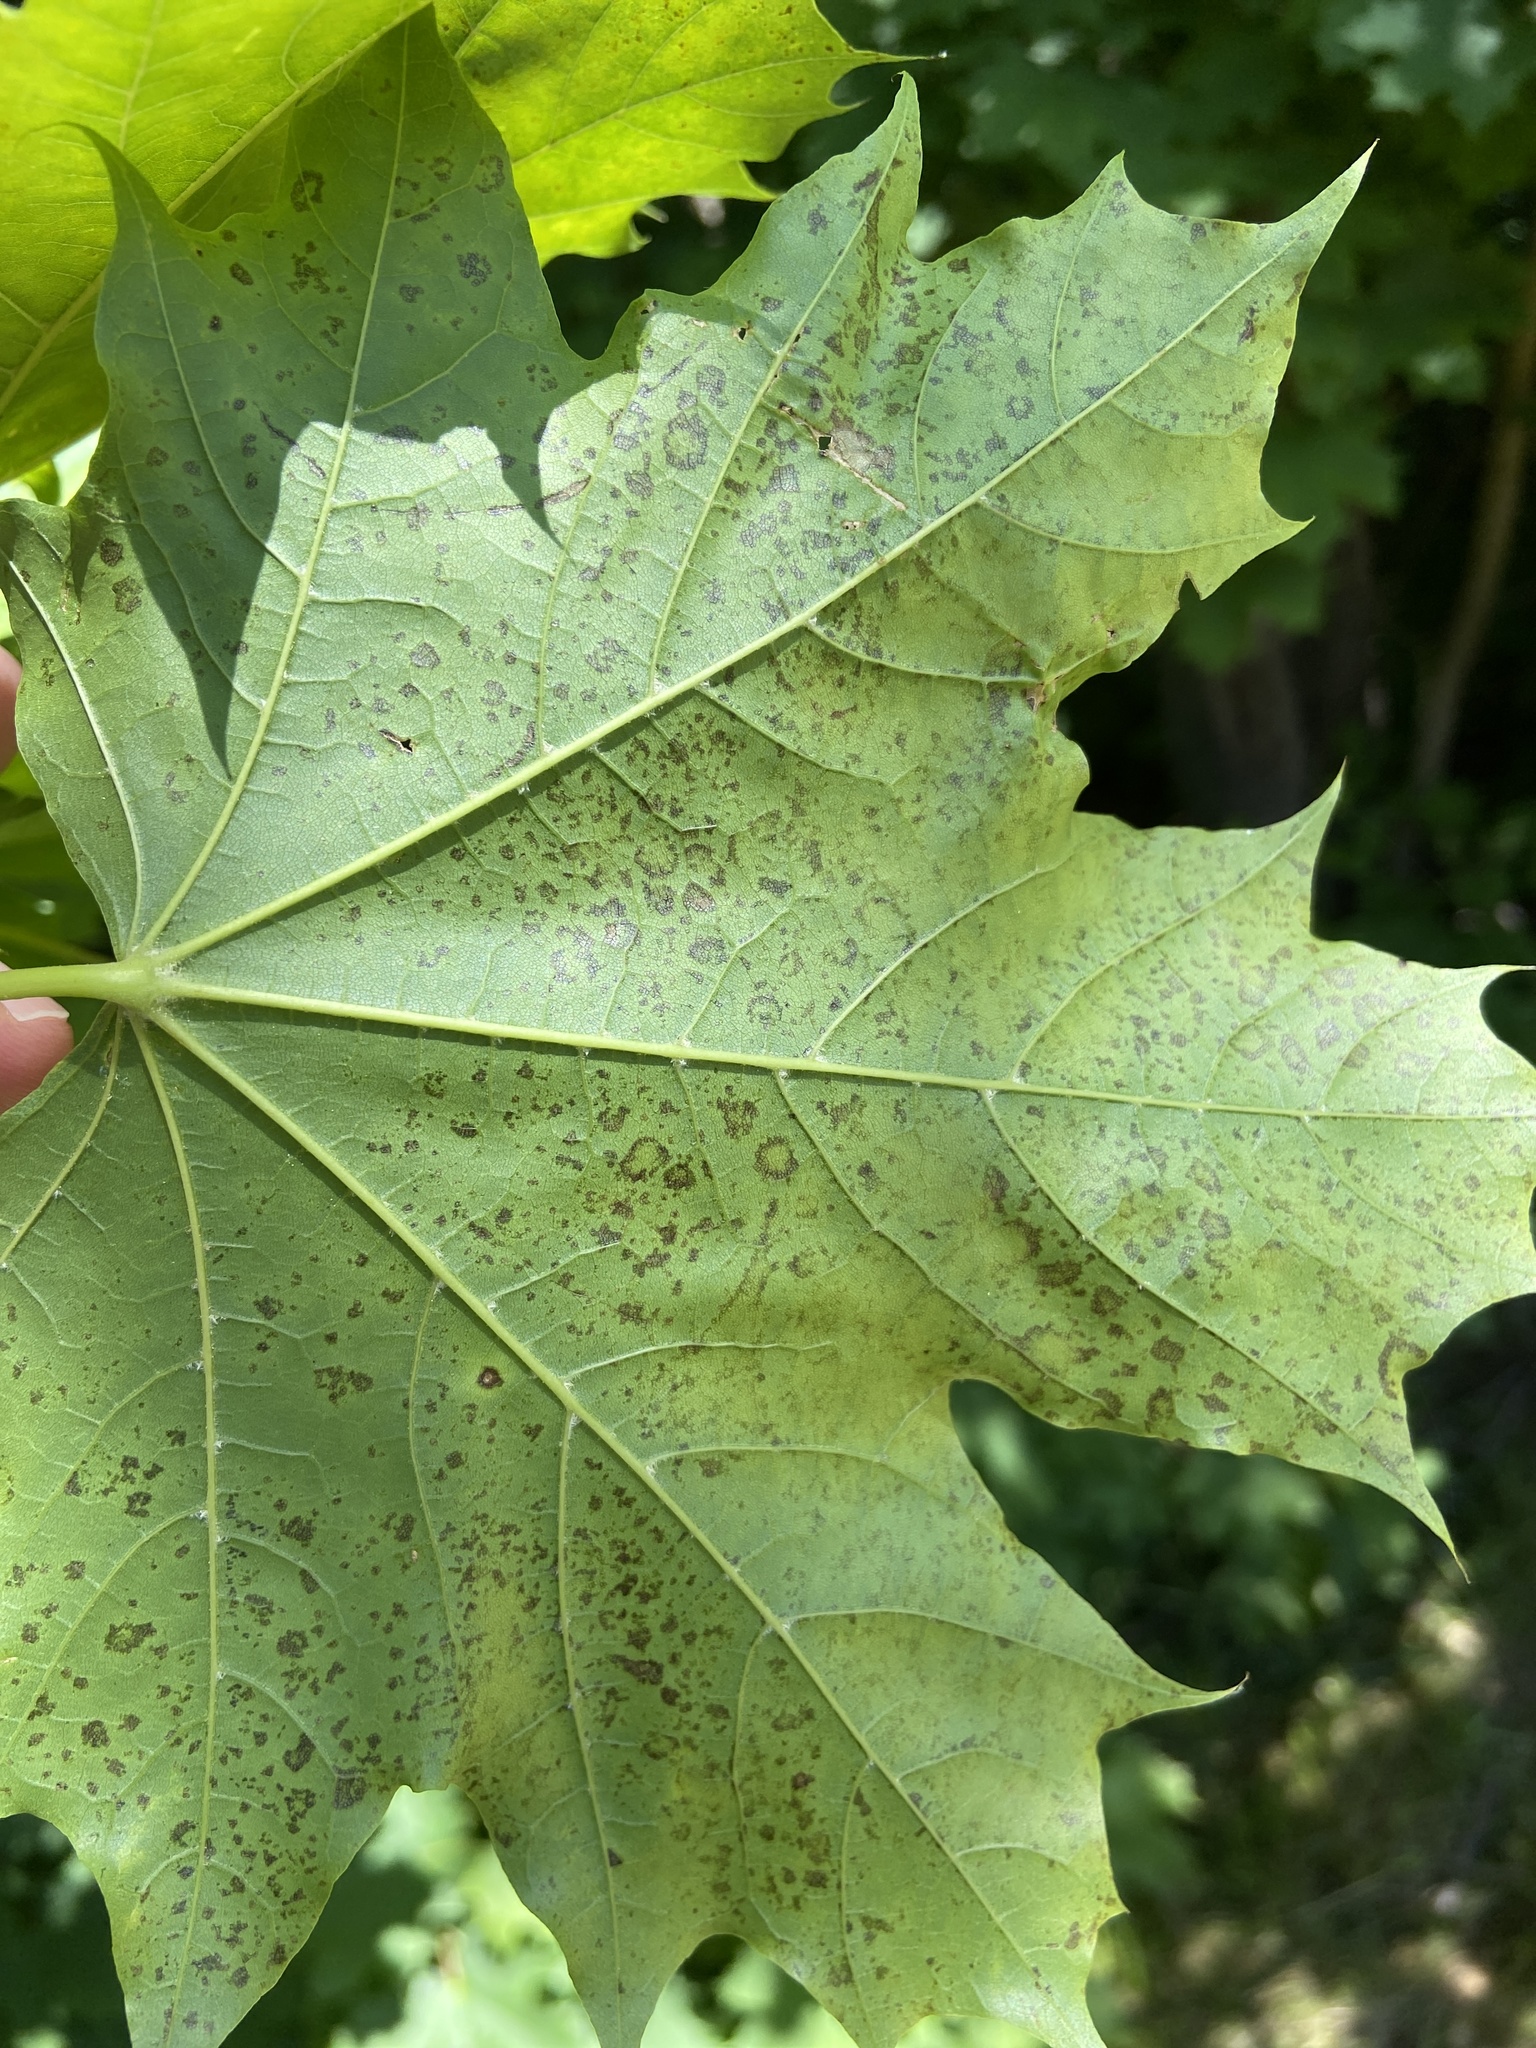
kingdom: Plantae
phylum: Tracheophyta
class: Magnoliopsida
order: Sapindales
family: Sapindaceae
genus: Acer
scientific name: Acer platanoides
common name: Norway maple
